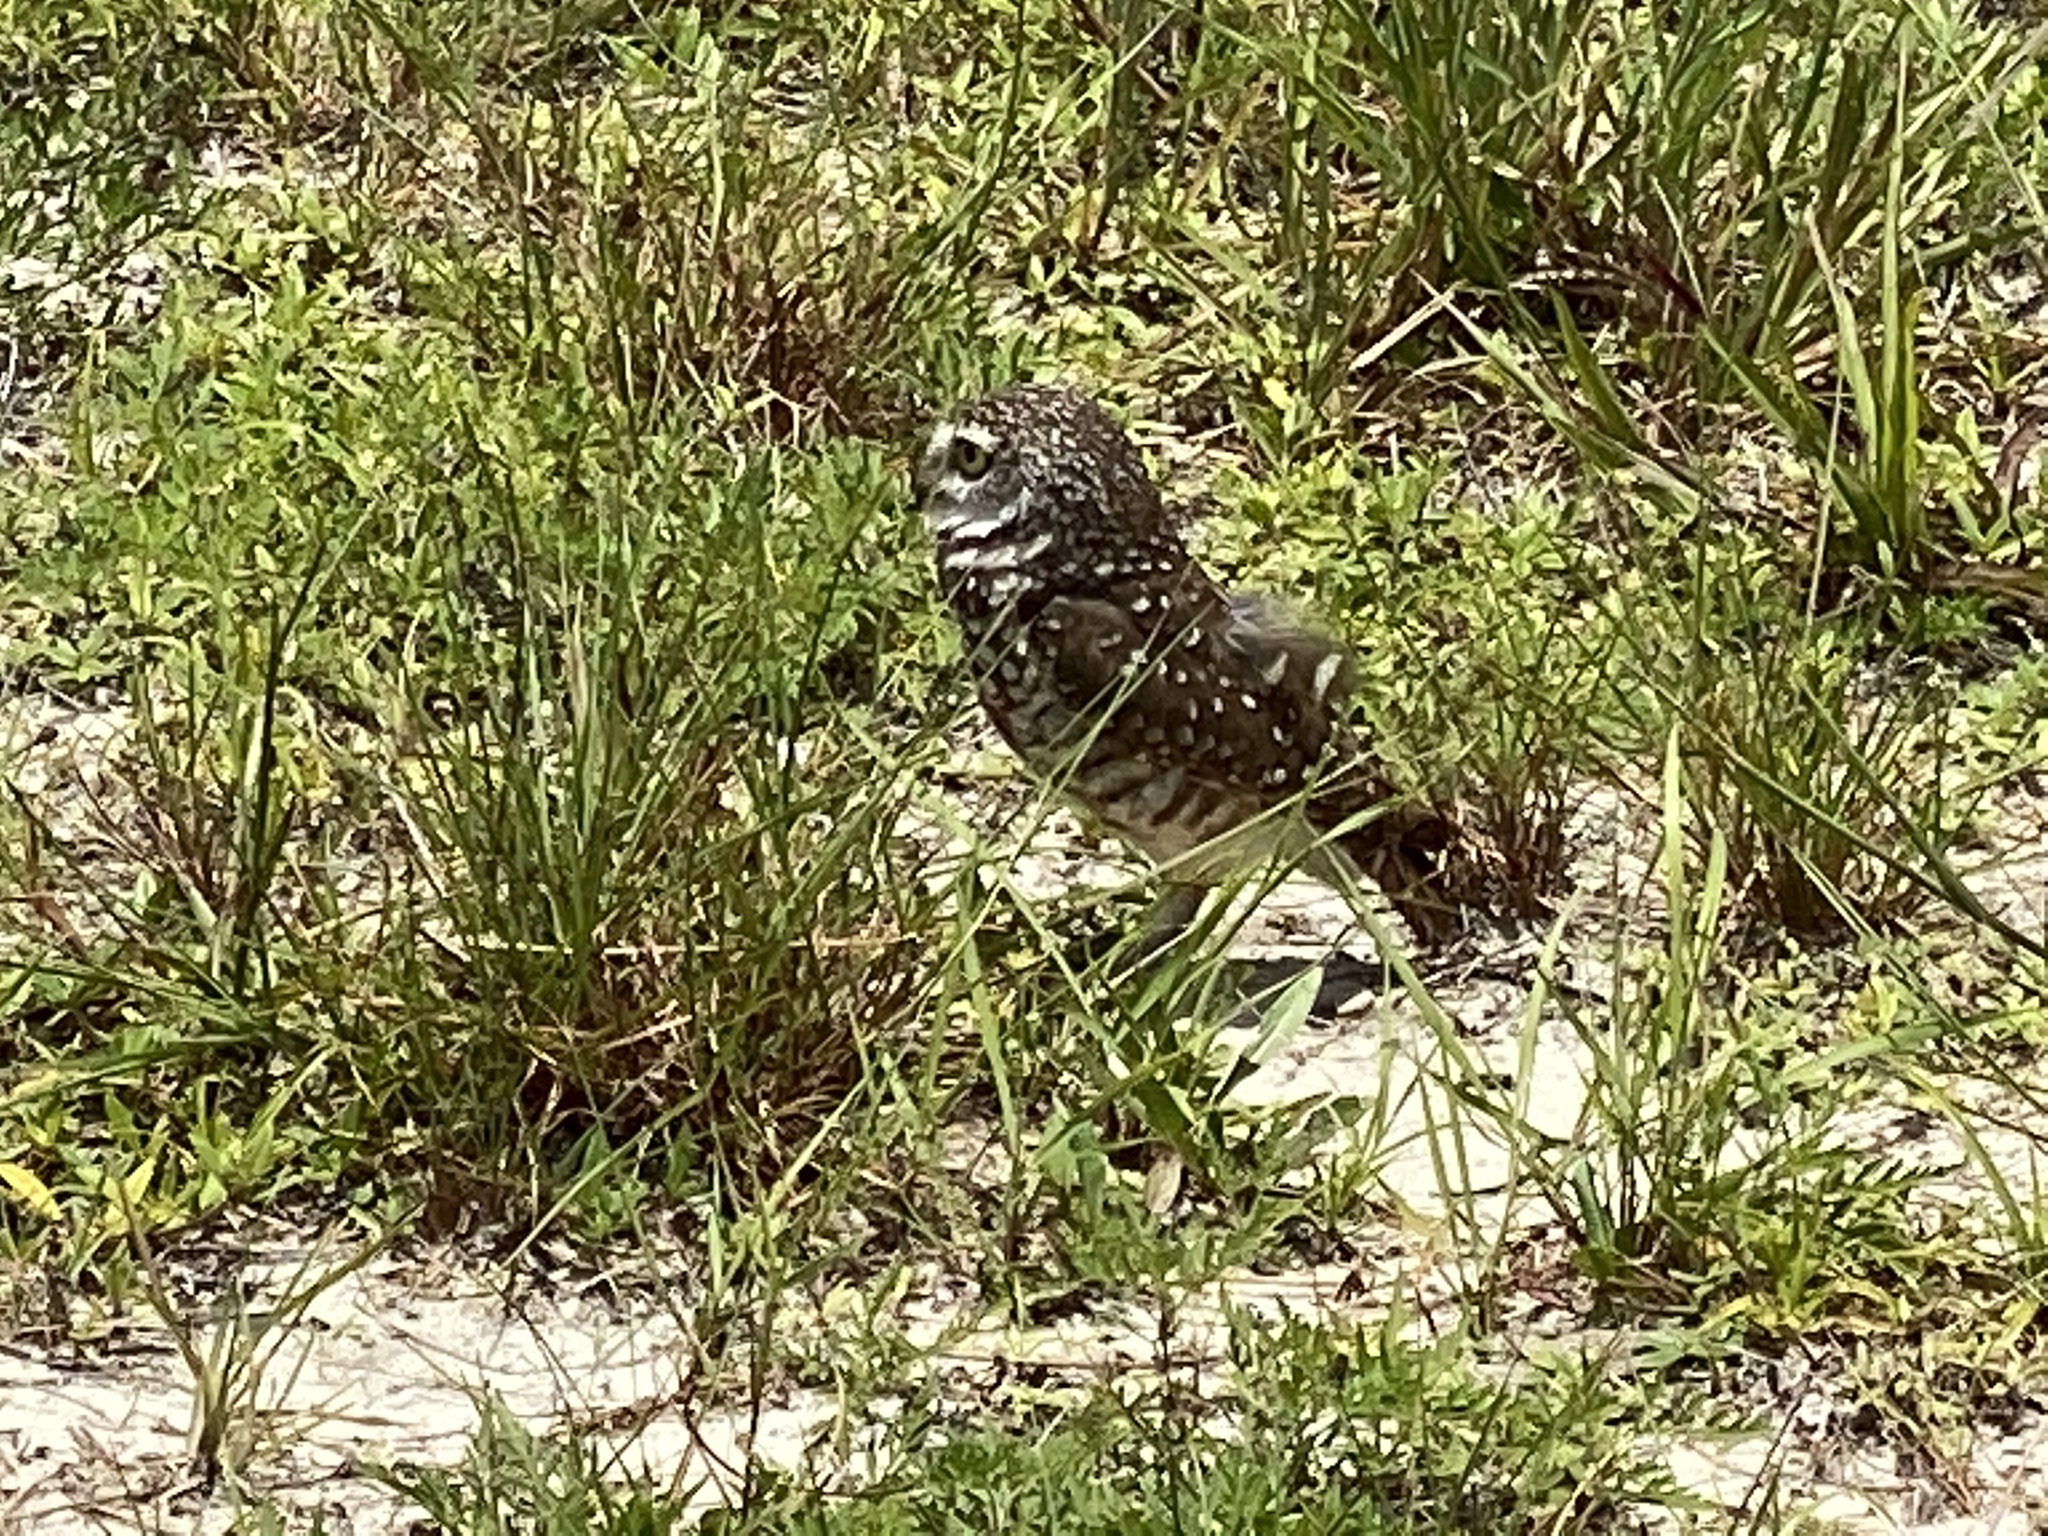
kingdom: Animalia
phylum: Chordata
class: Aves
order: Strigiformes
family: Strigidae
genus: Athene
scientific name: Athene cunicularia
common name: Burrowing owl
